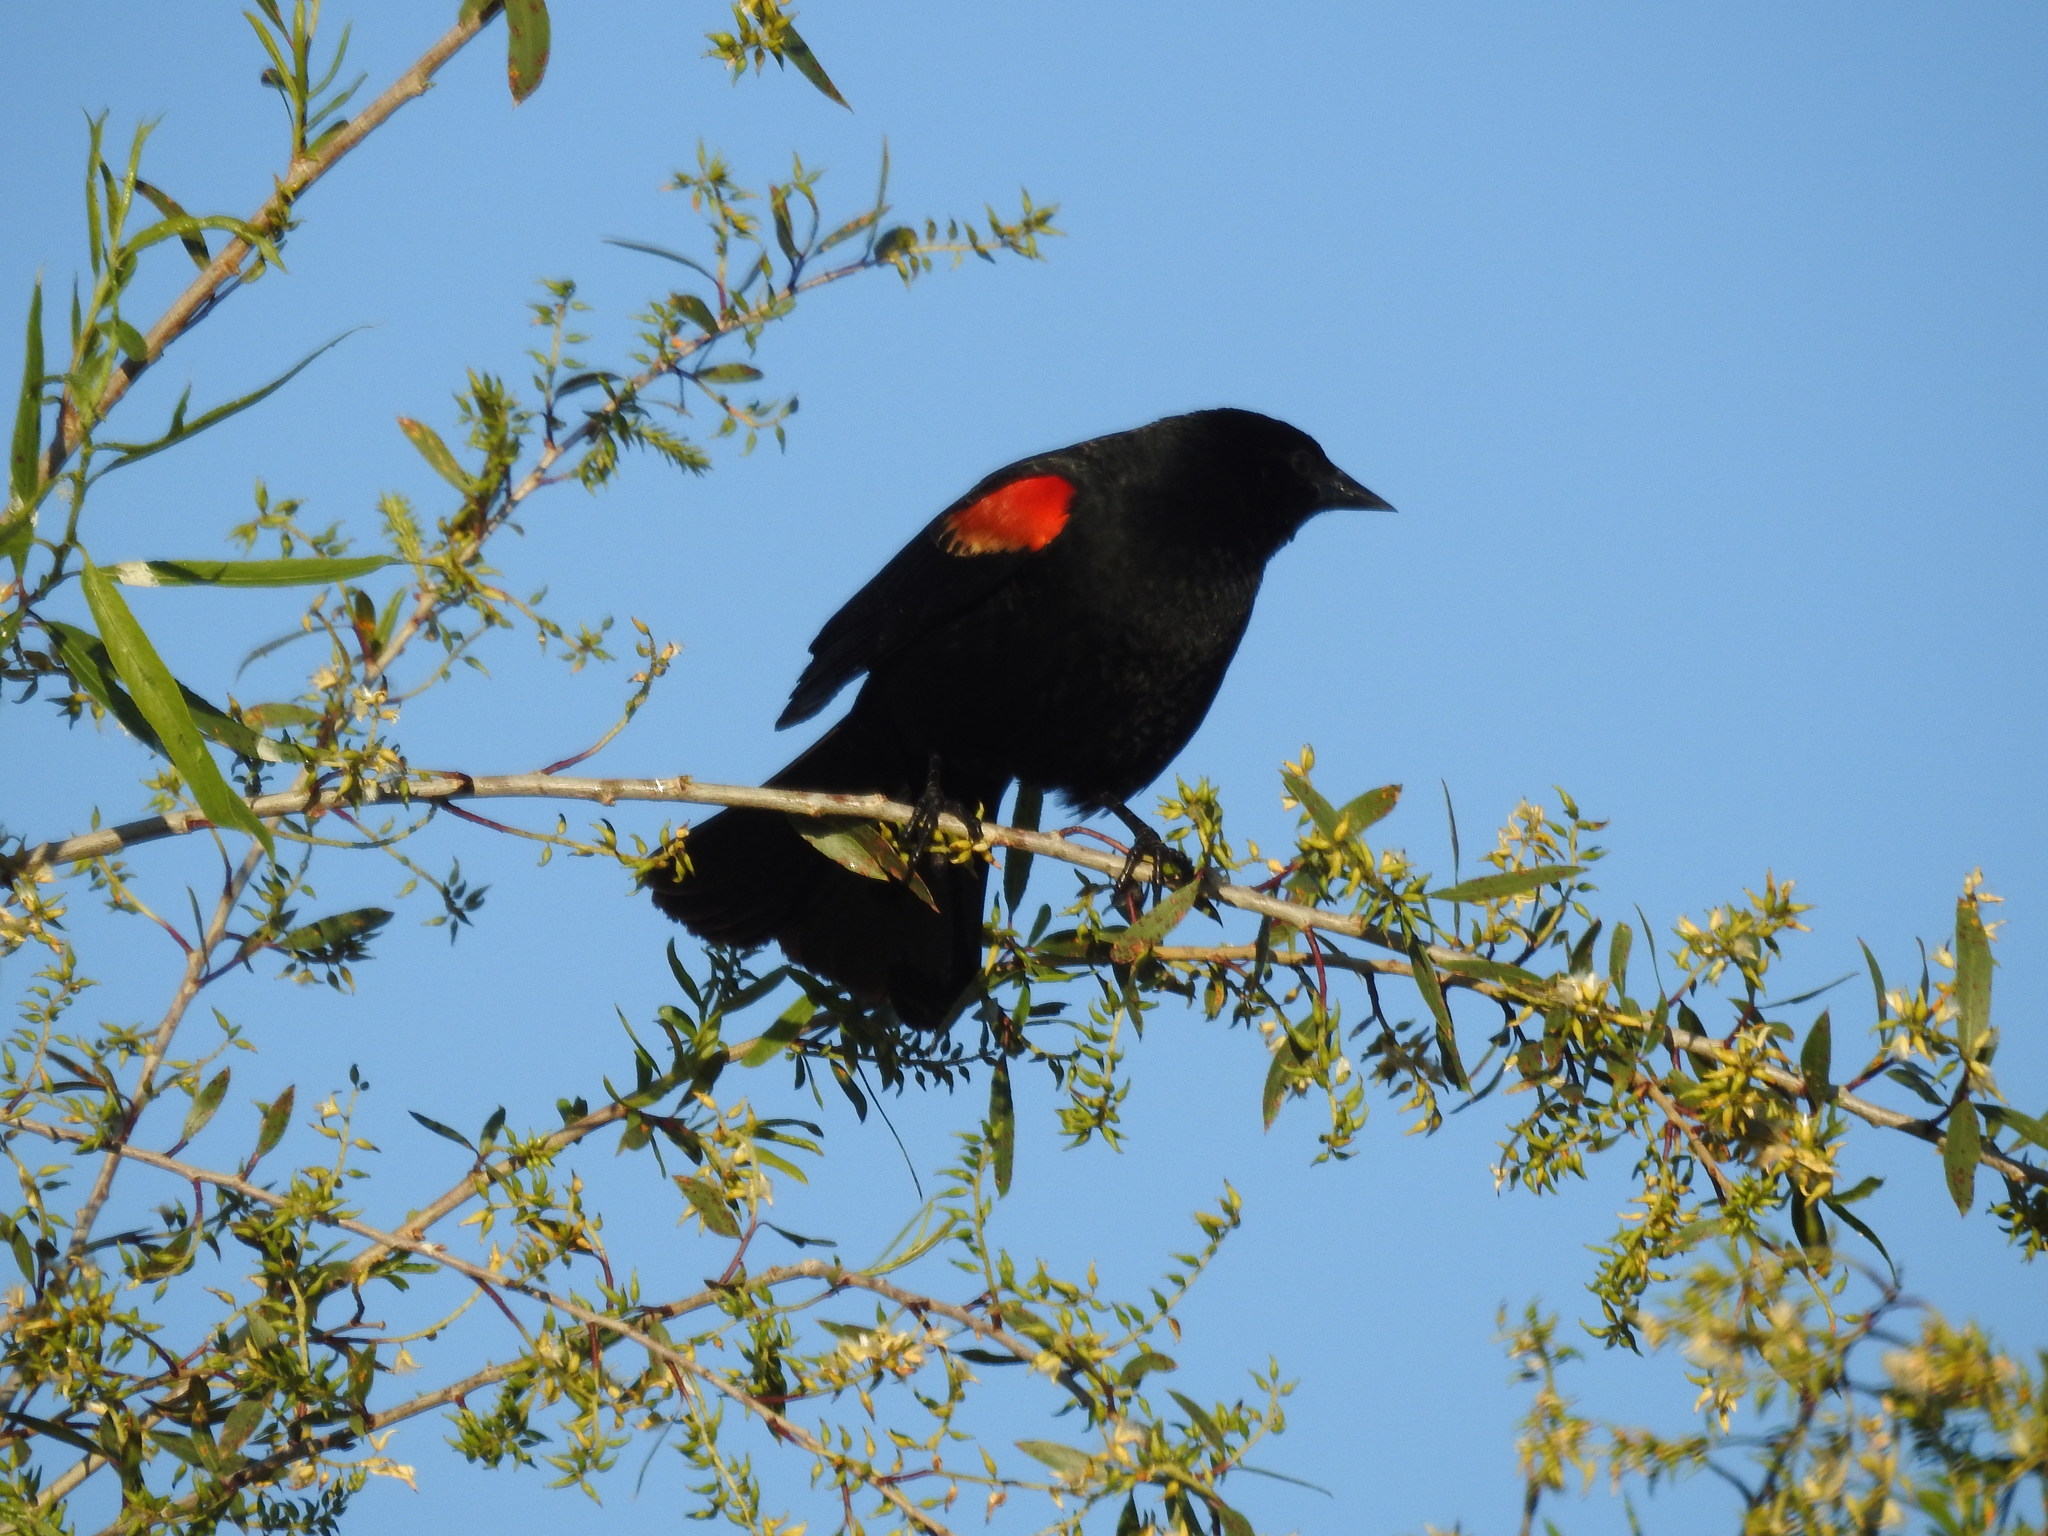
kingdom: Animalia
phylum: Chordata
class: Aves
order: Passeriformes
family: Icteridae
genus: Agelaius
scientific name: Agelaius phoeniceus
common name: Red-winged blackbird
